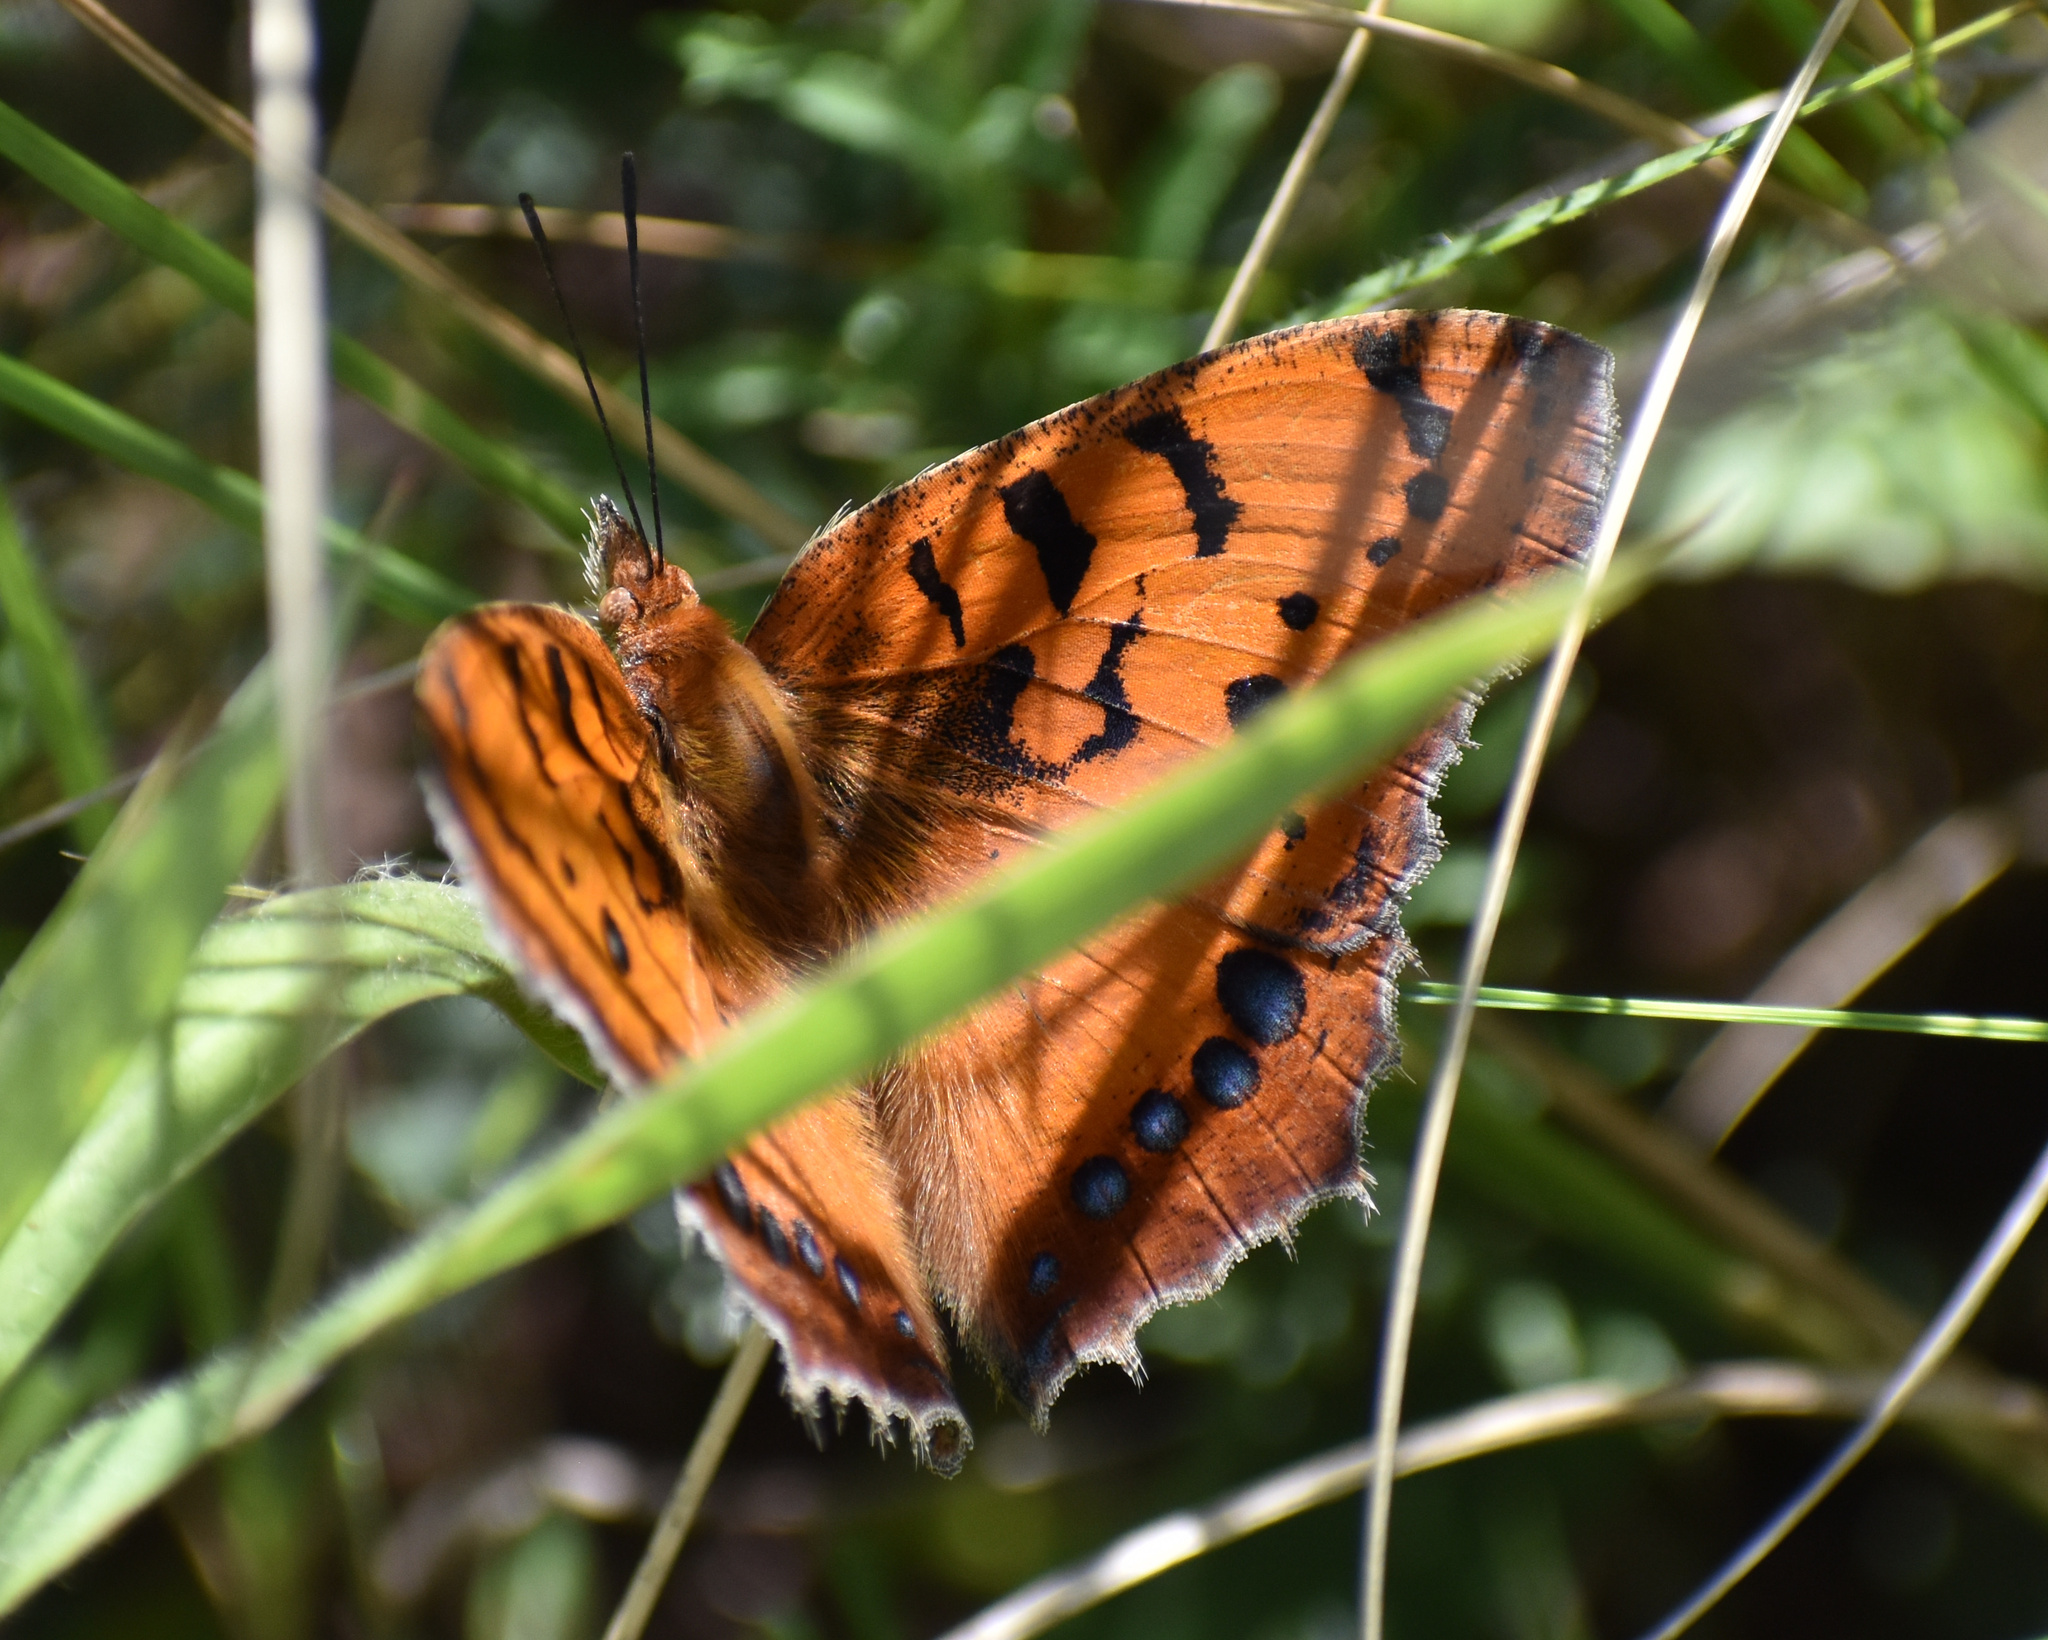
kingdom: Animalia
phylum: Arthropoda
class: Insecta
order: Lepidoptera
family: Nymphalidae
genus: Catacroptera
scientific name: Catacroptera cloanthe
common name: Pirate
